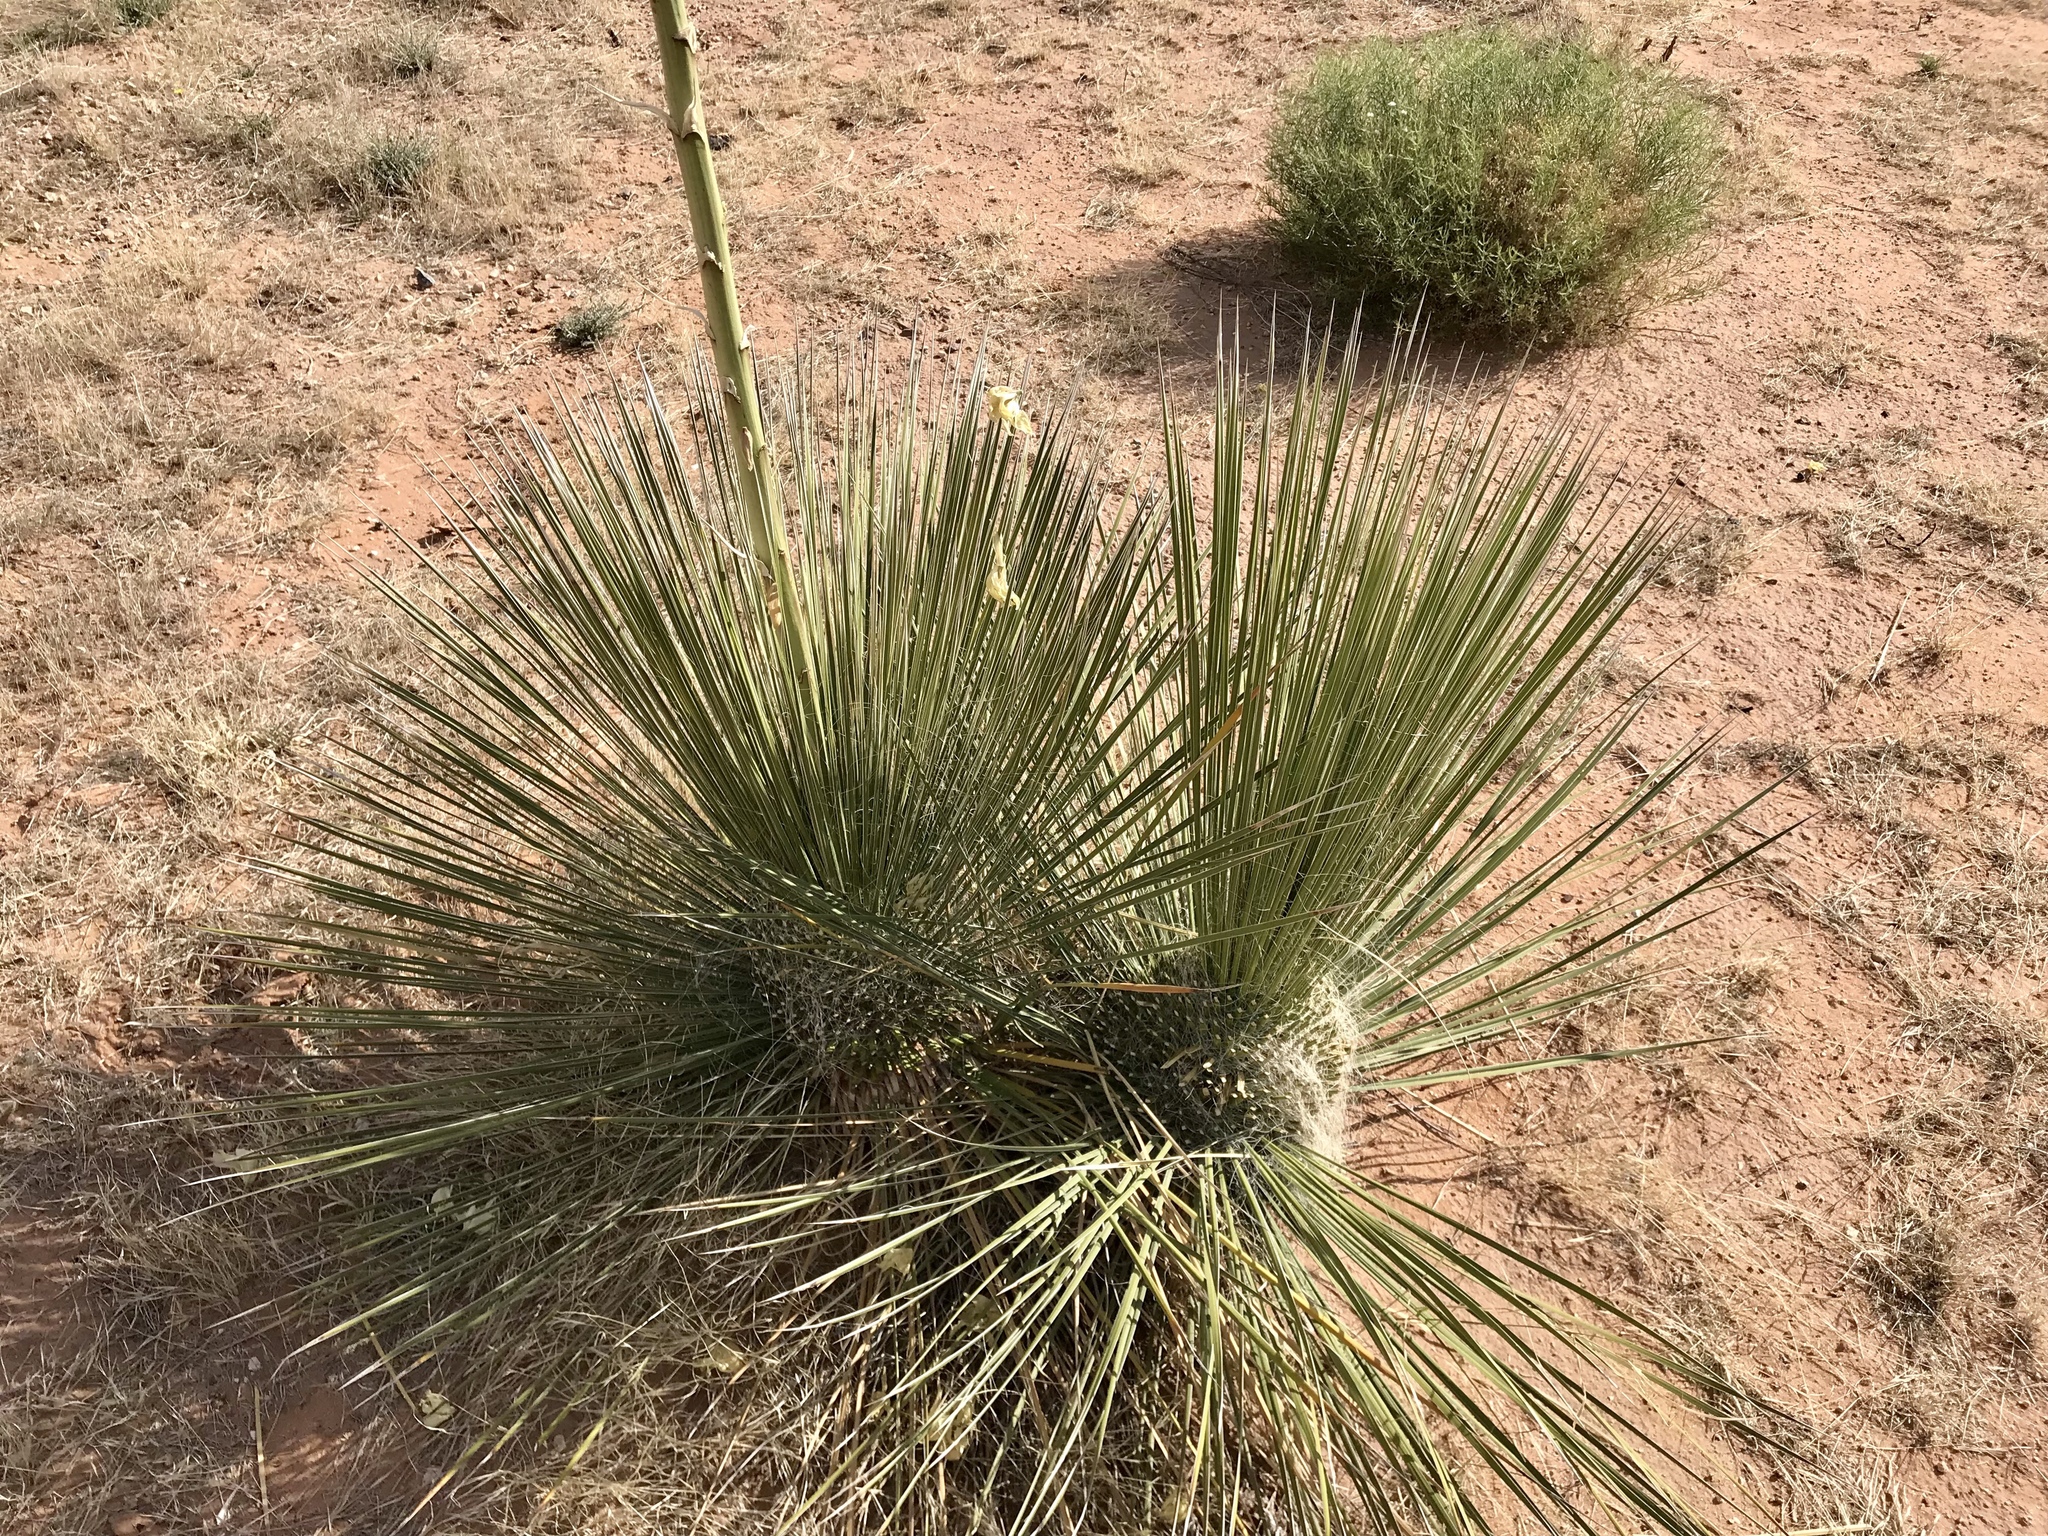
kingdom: Plantae
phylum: Tracheophyta
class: Liliopsida
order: Asparagales
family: Asparagaceae
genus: Yucca
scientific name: Yucca elata
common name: Palmella
